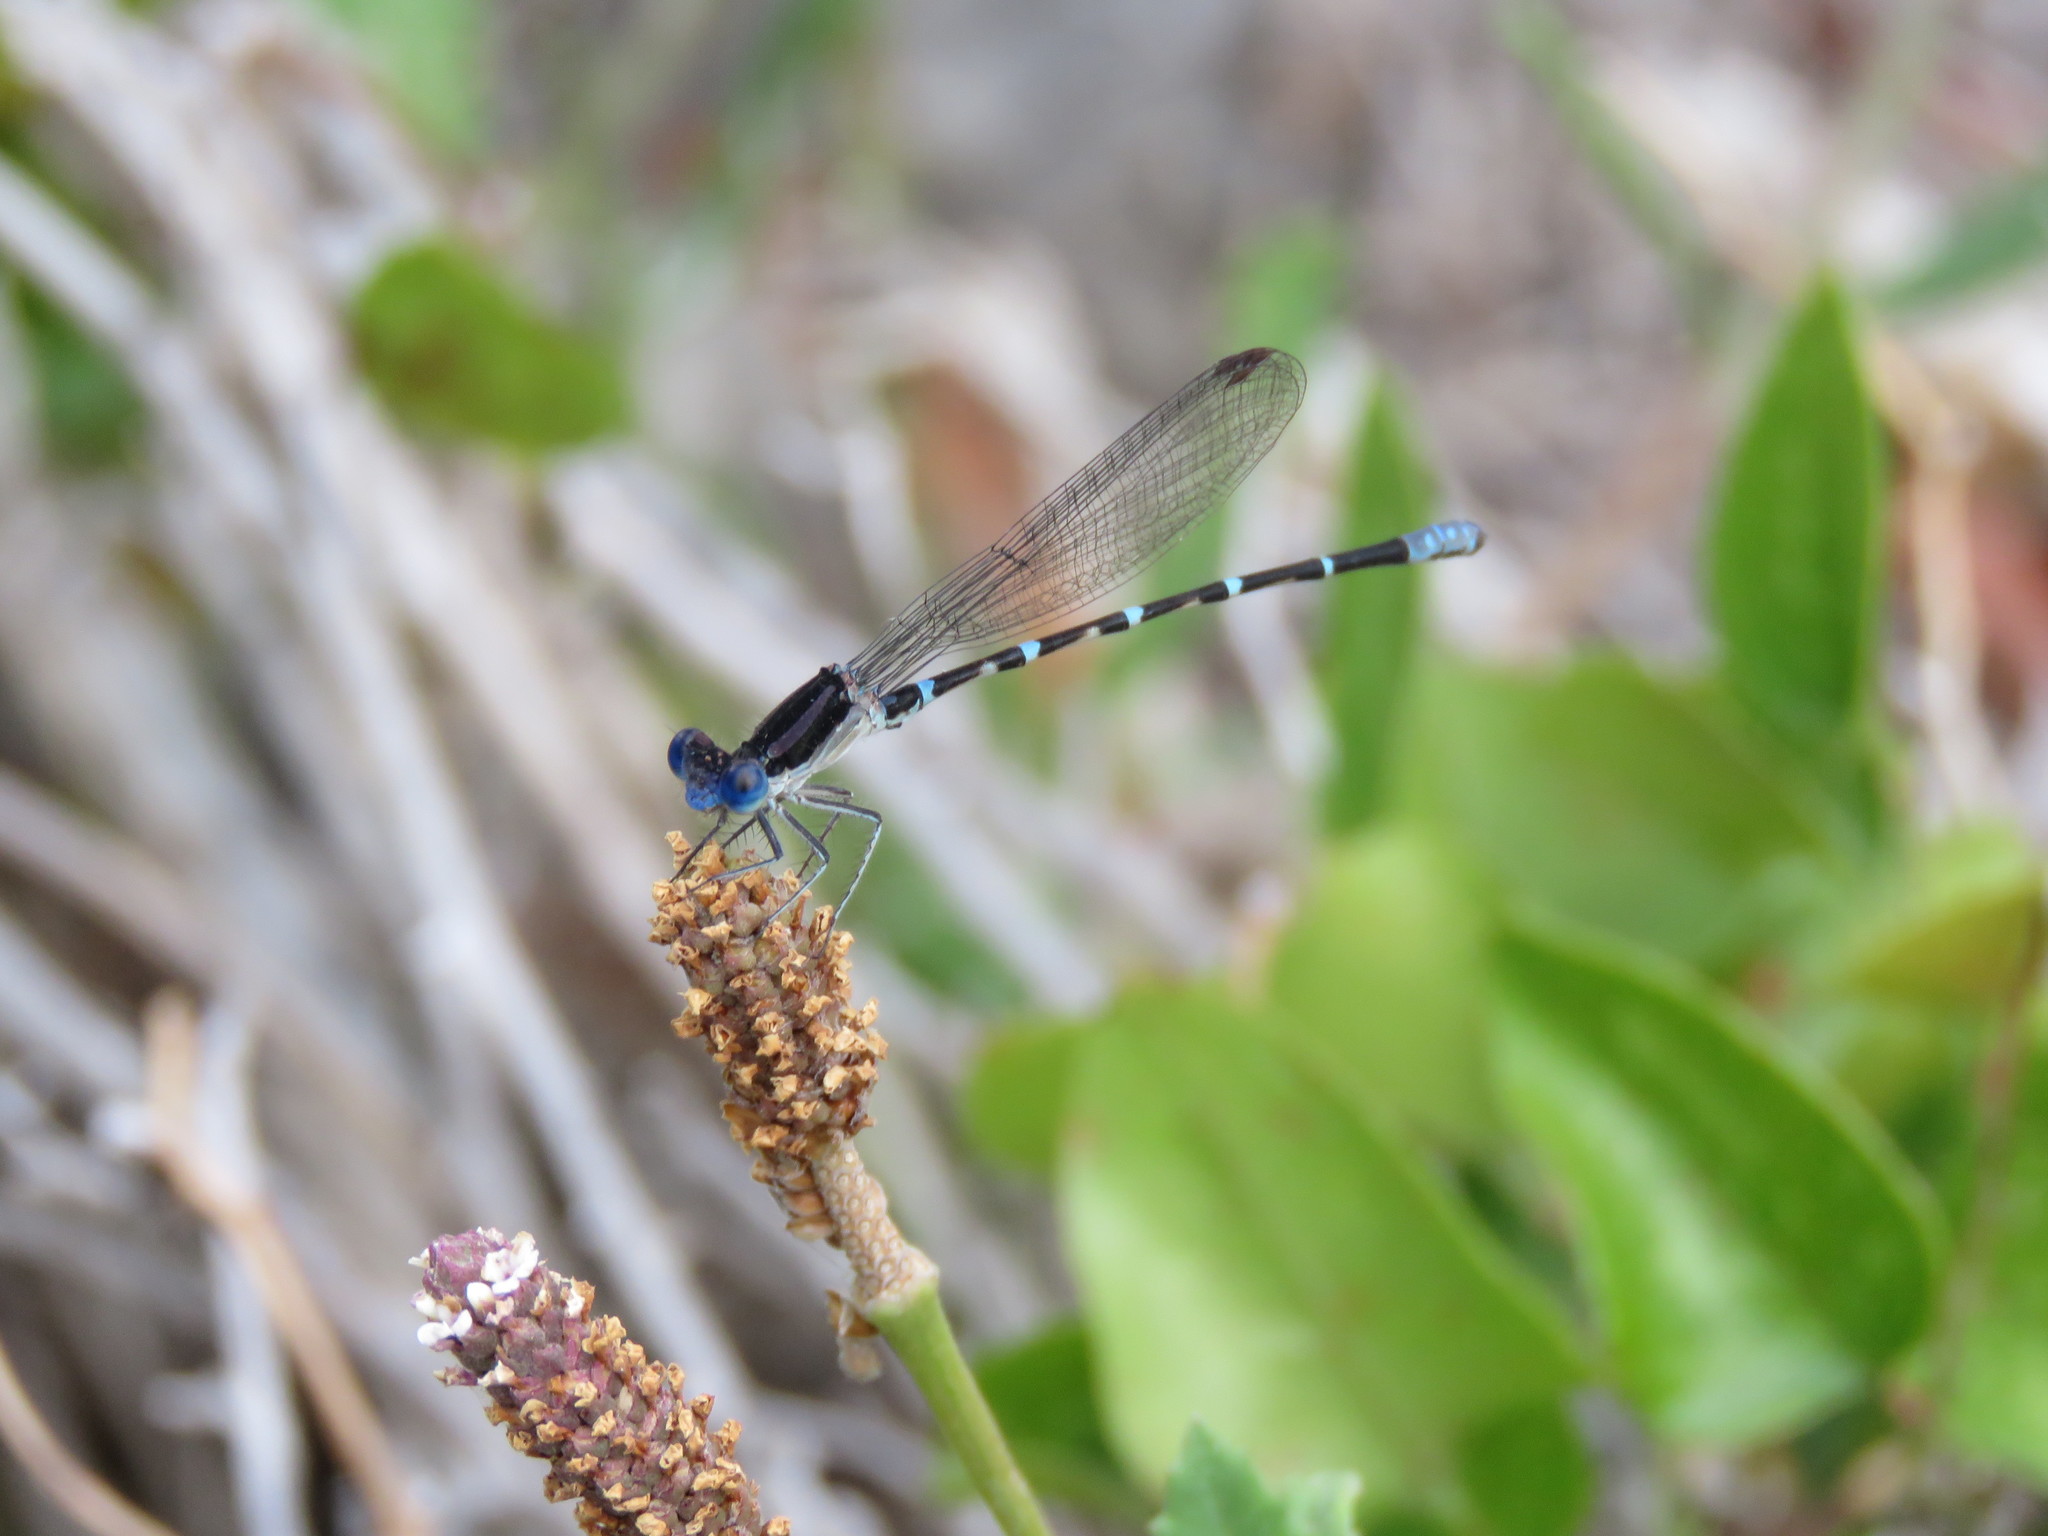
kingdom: Animalia
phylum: Arthropoda
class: Insecta
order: Odonata
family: Coenagrionidae
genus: Argia
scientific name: Argia sedula
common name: Blue-ringed dancer
